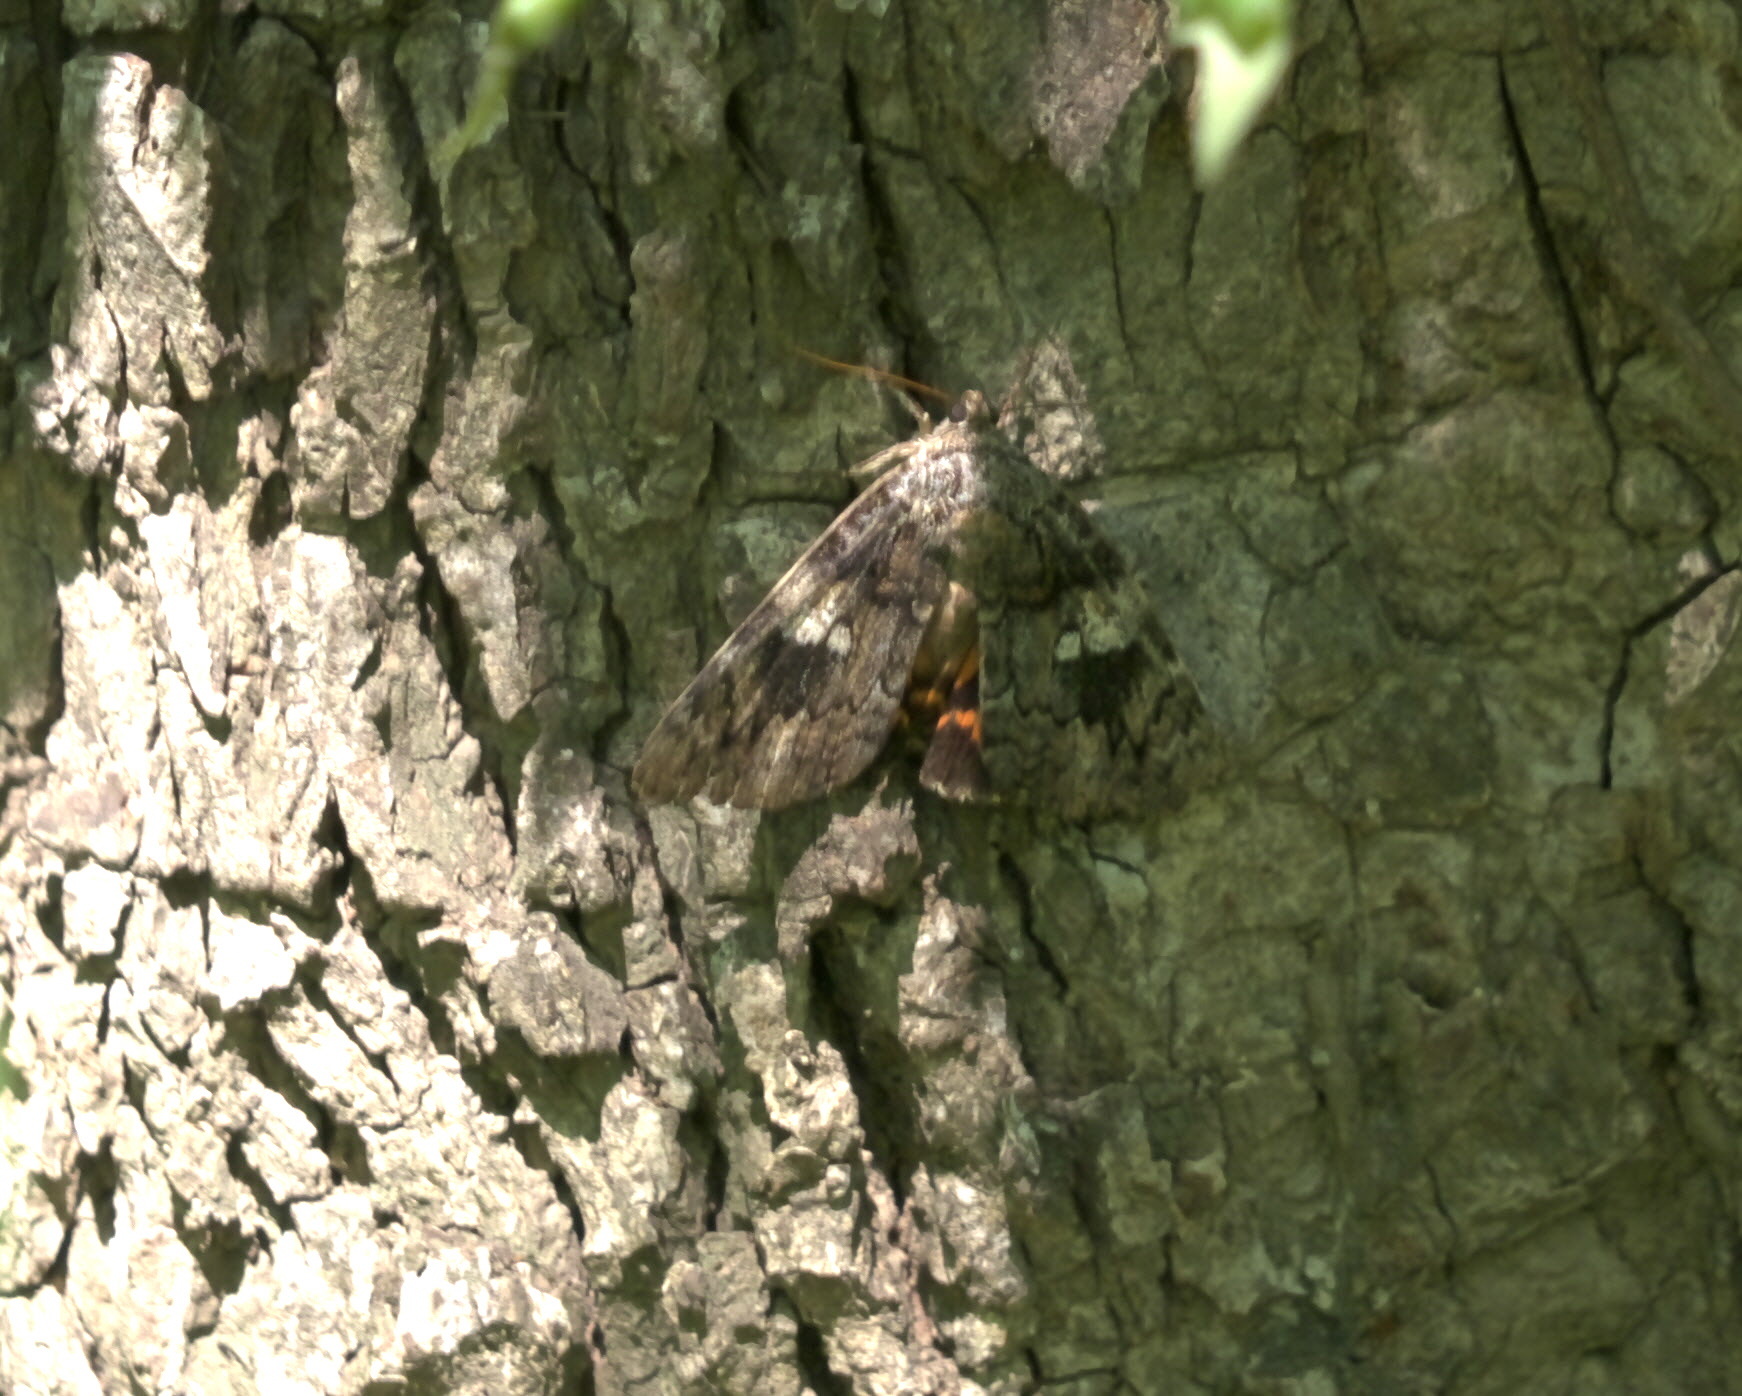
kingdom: Animalia
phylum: Arthropoda
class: Insecta
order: Lepidoptera
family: Erebidae
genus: Catocala
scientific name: Catocala ilia
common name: Ilia underwing
